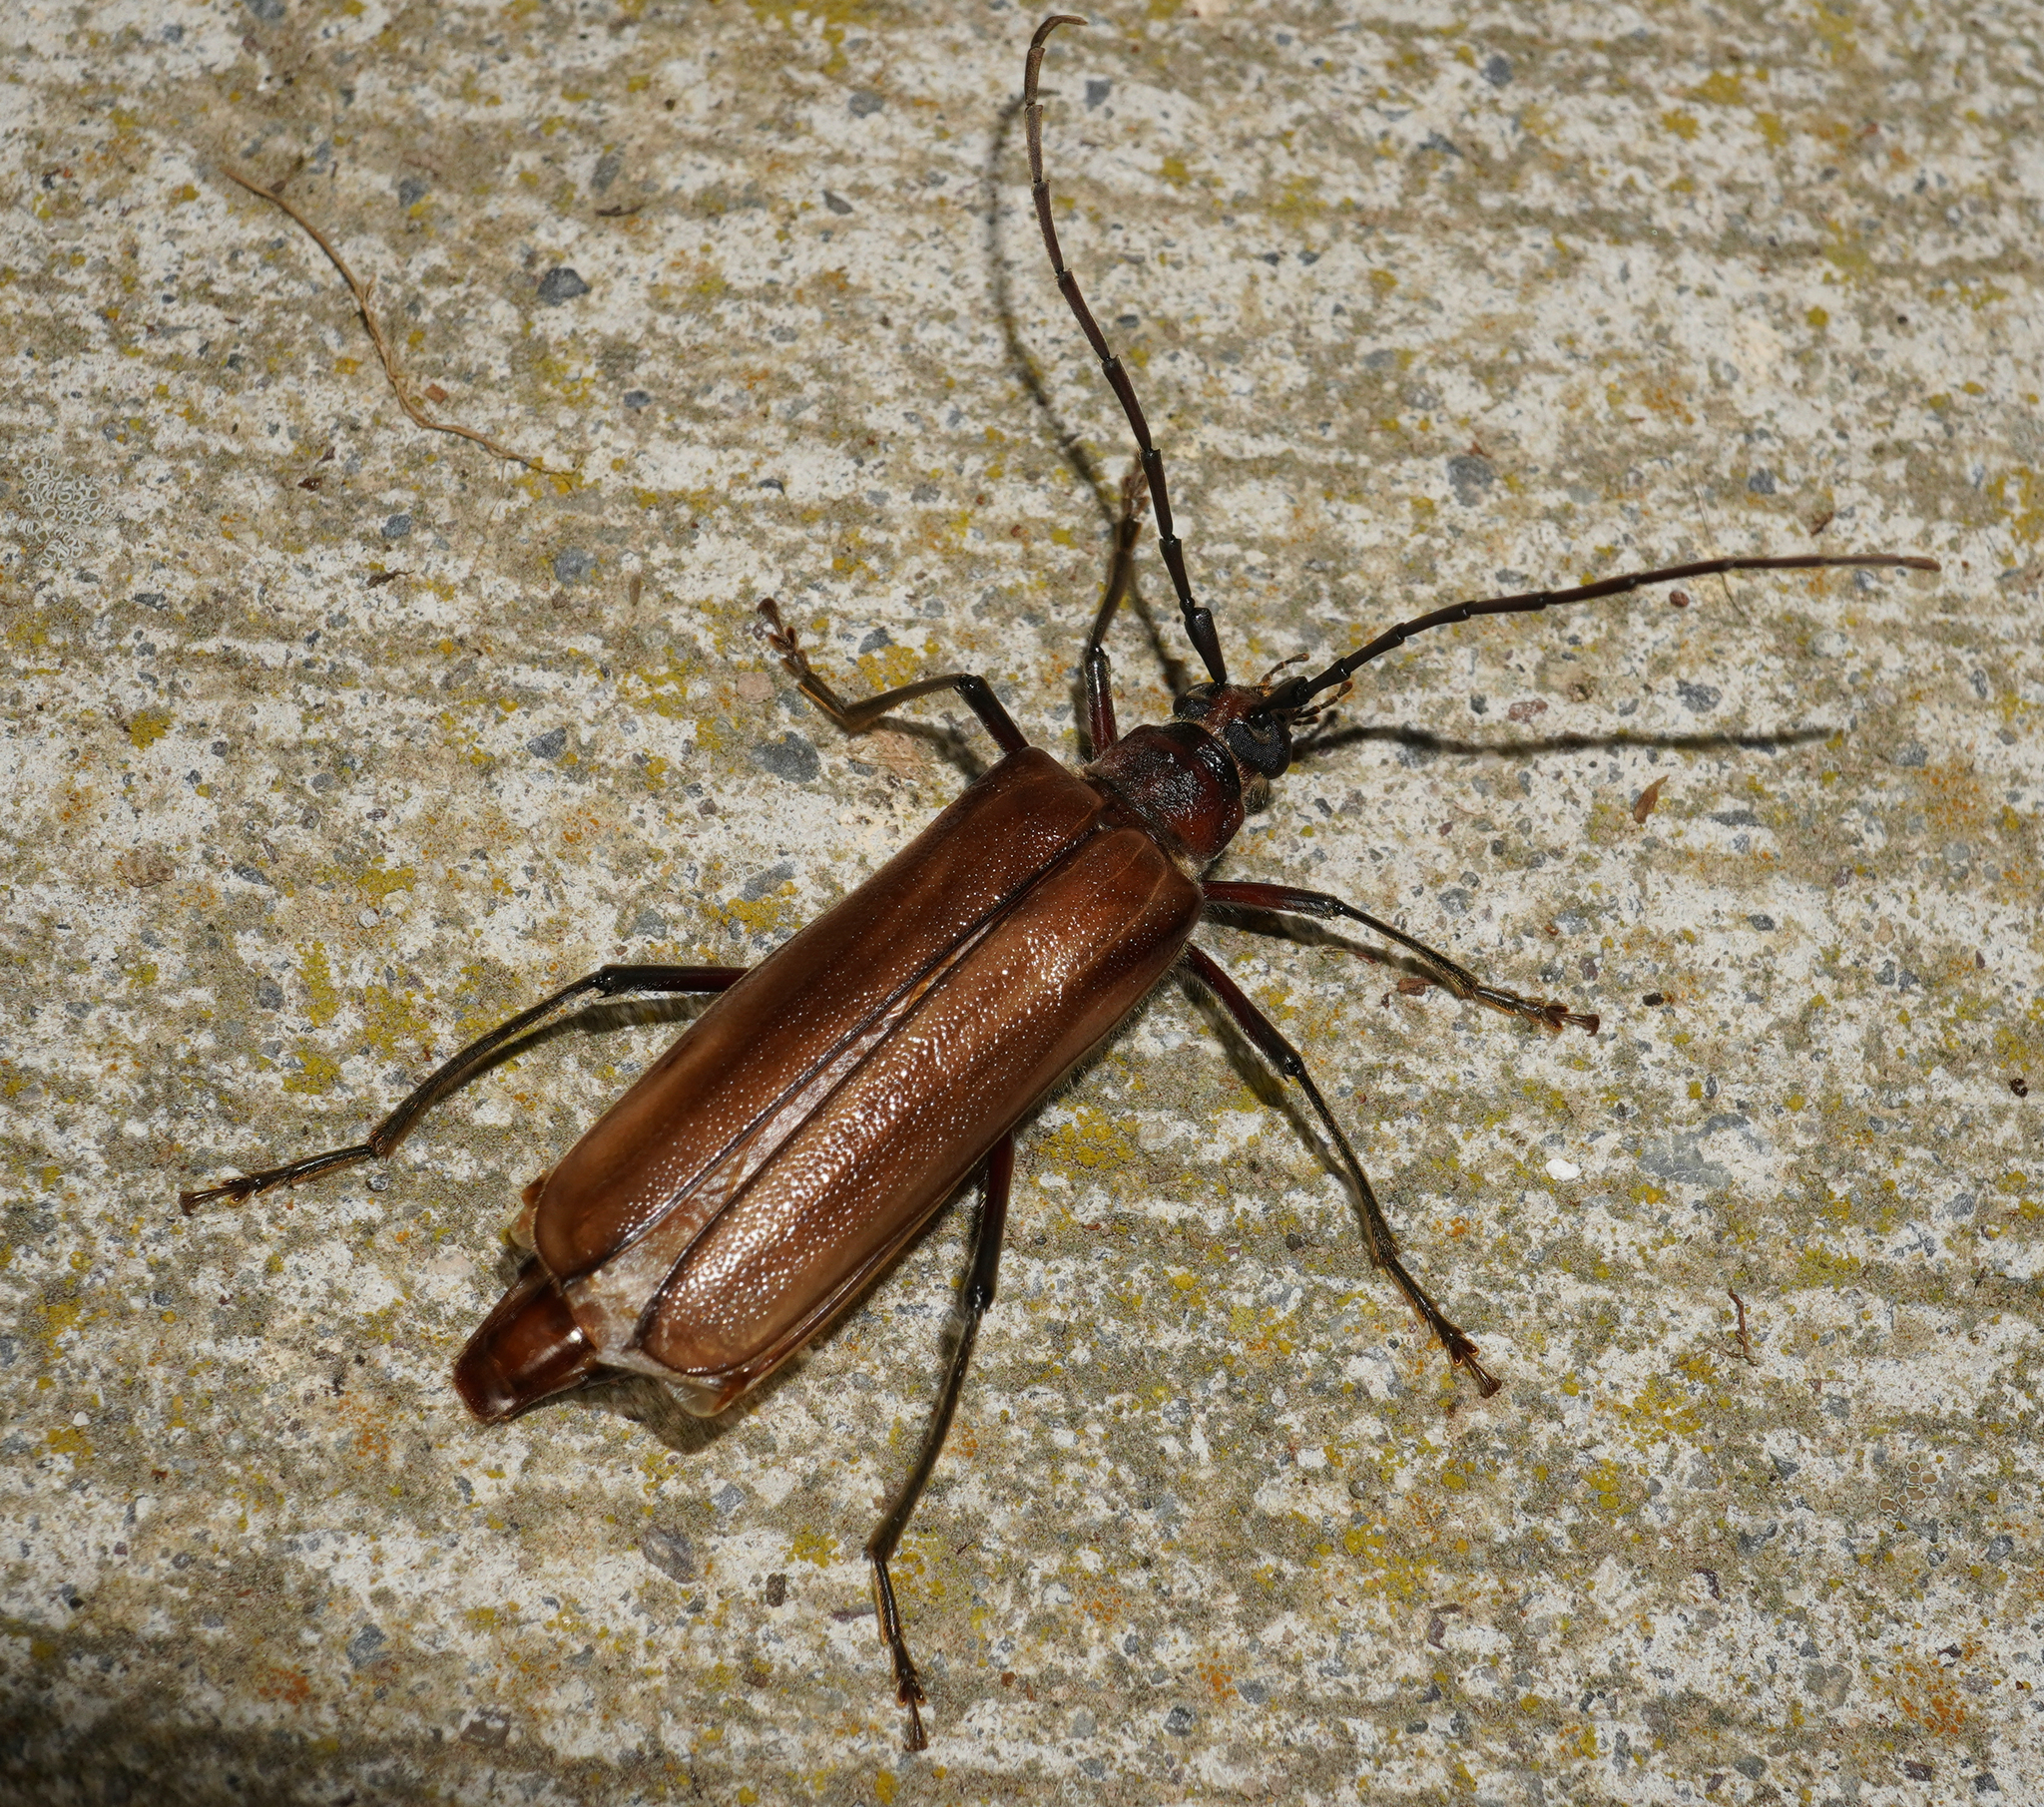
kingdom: Animalia
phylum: Arthropoda
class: Insecta
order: Coleoptera
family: Cerambycidae
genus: Ochrocydus
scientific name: Ochrocydus huttoni
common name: Kanuka longhorn
